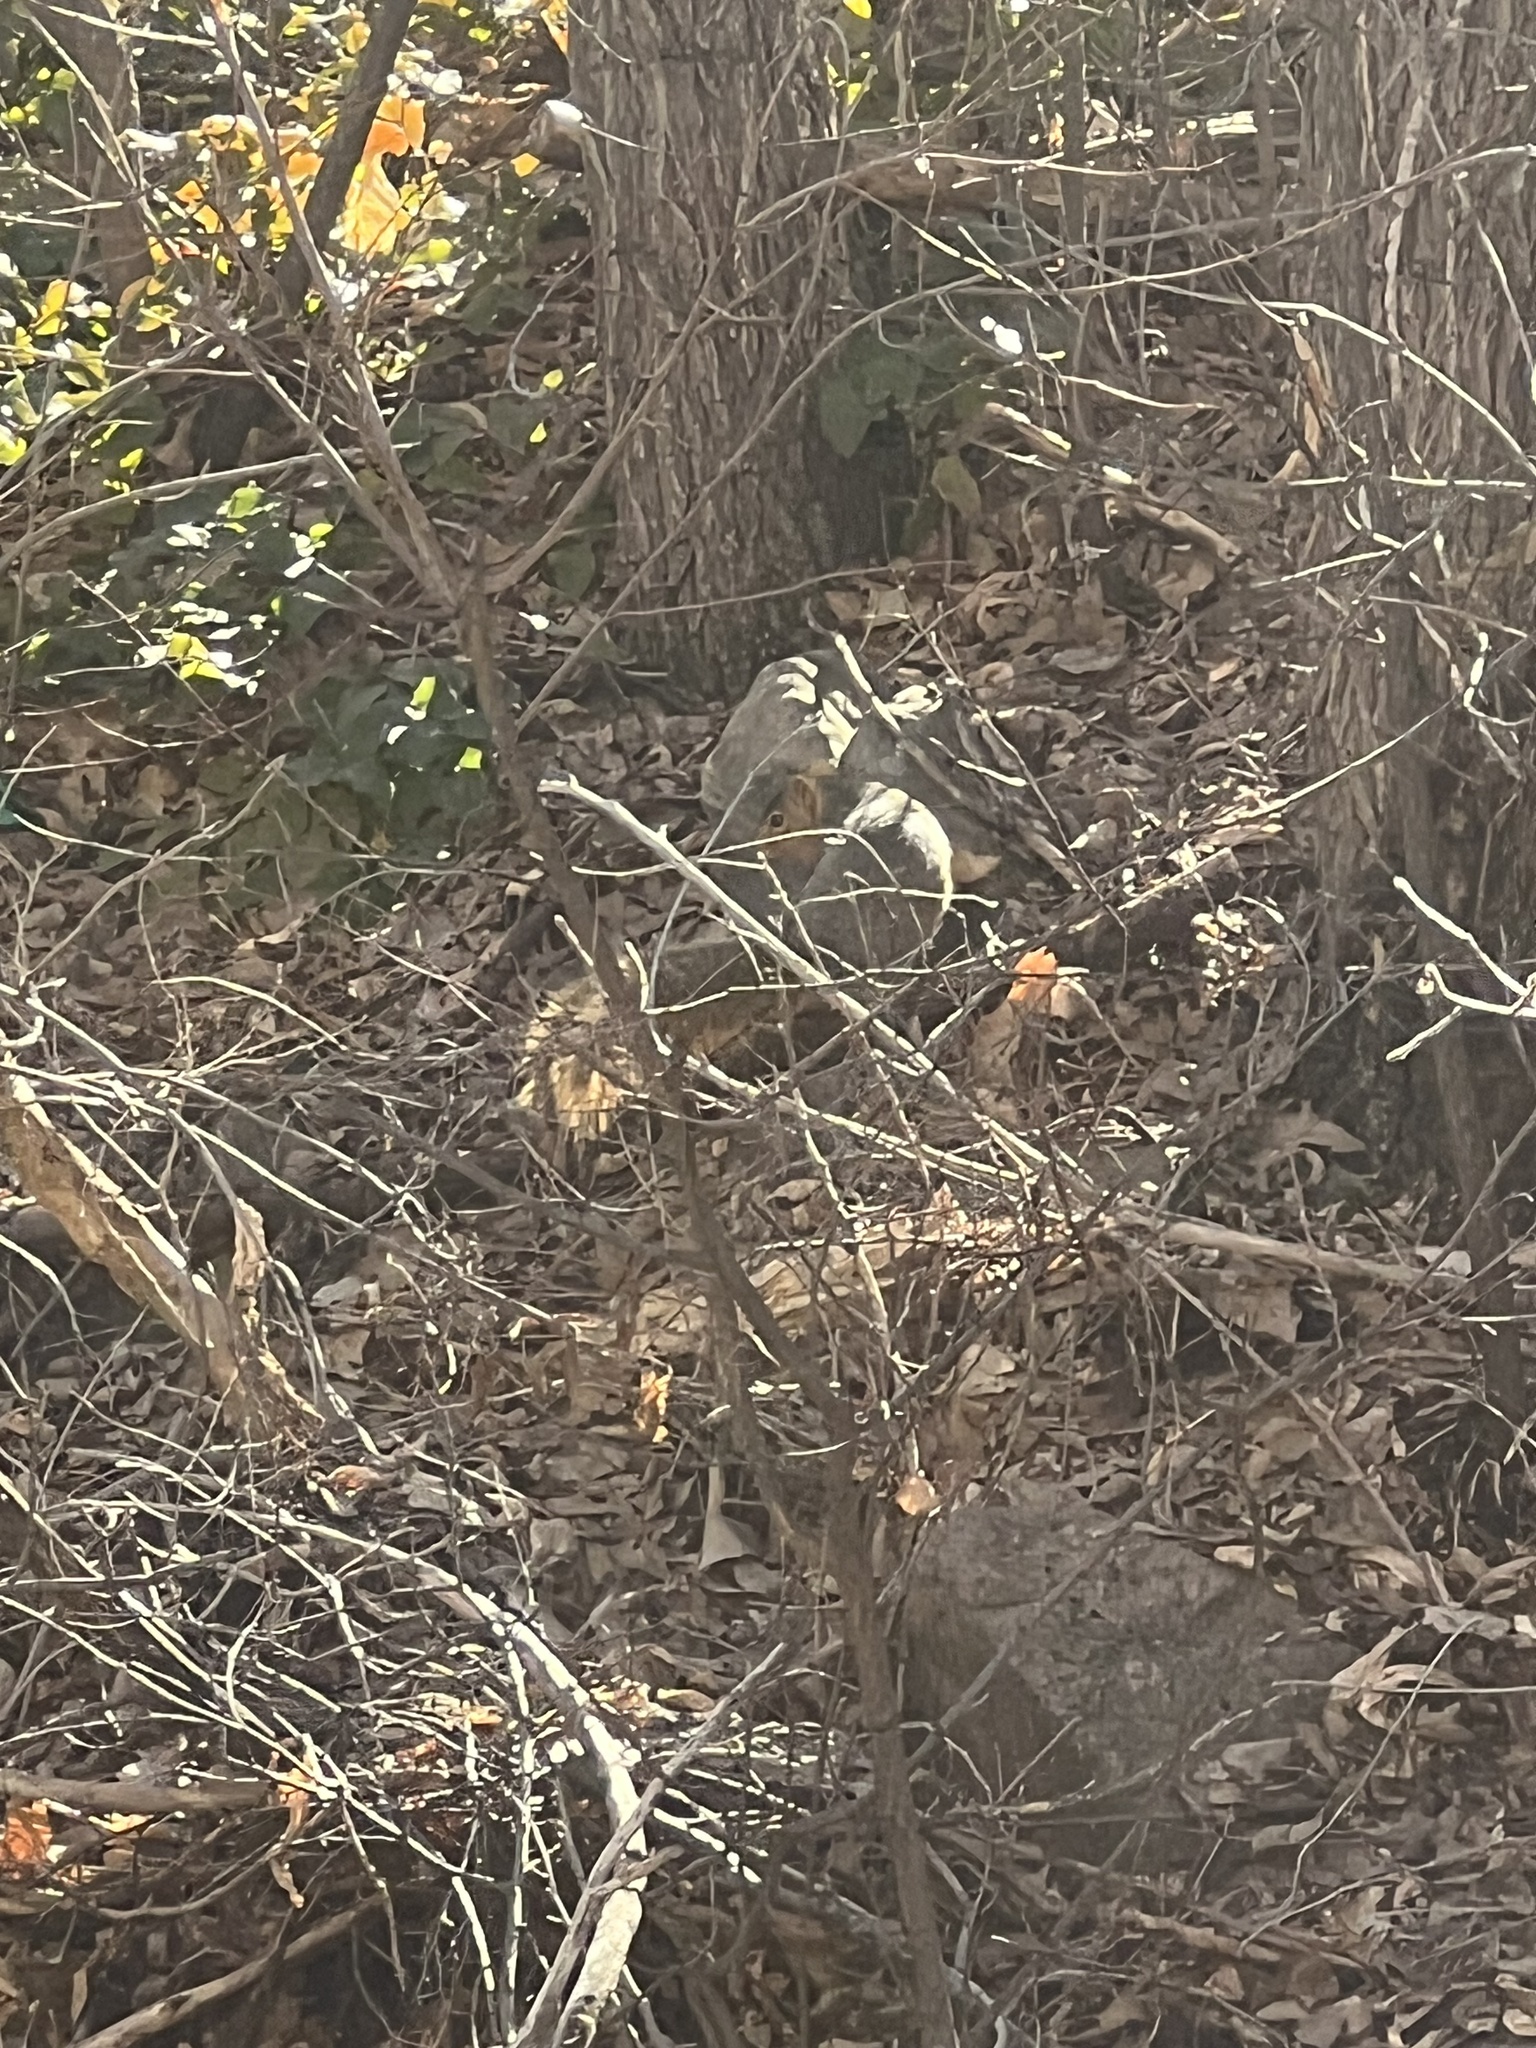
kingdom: Animalia
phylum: Chordata
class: Mammalia
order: Rodentia
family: Sciuridae
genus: Sciurus
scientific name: Sciurus niger
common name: Fox squirrel
